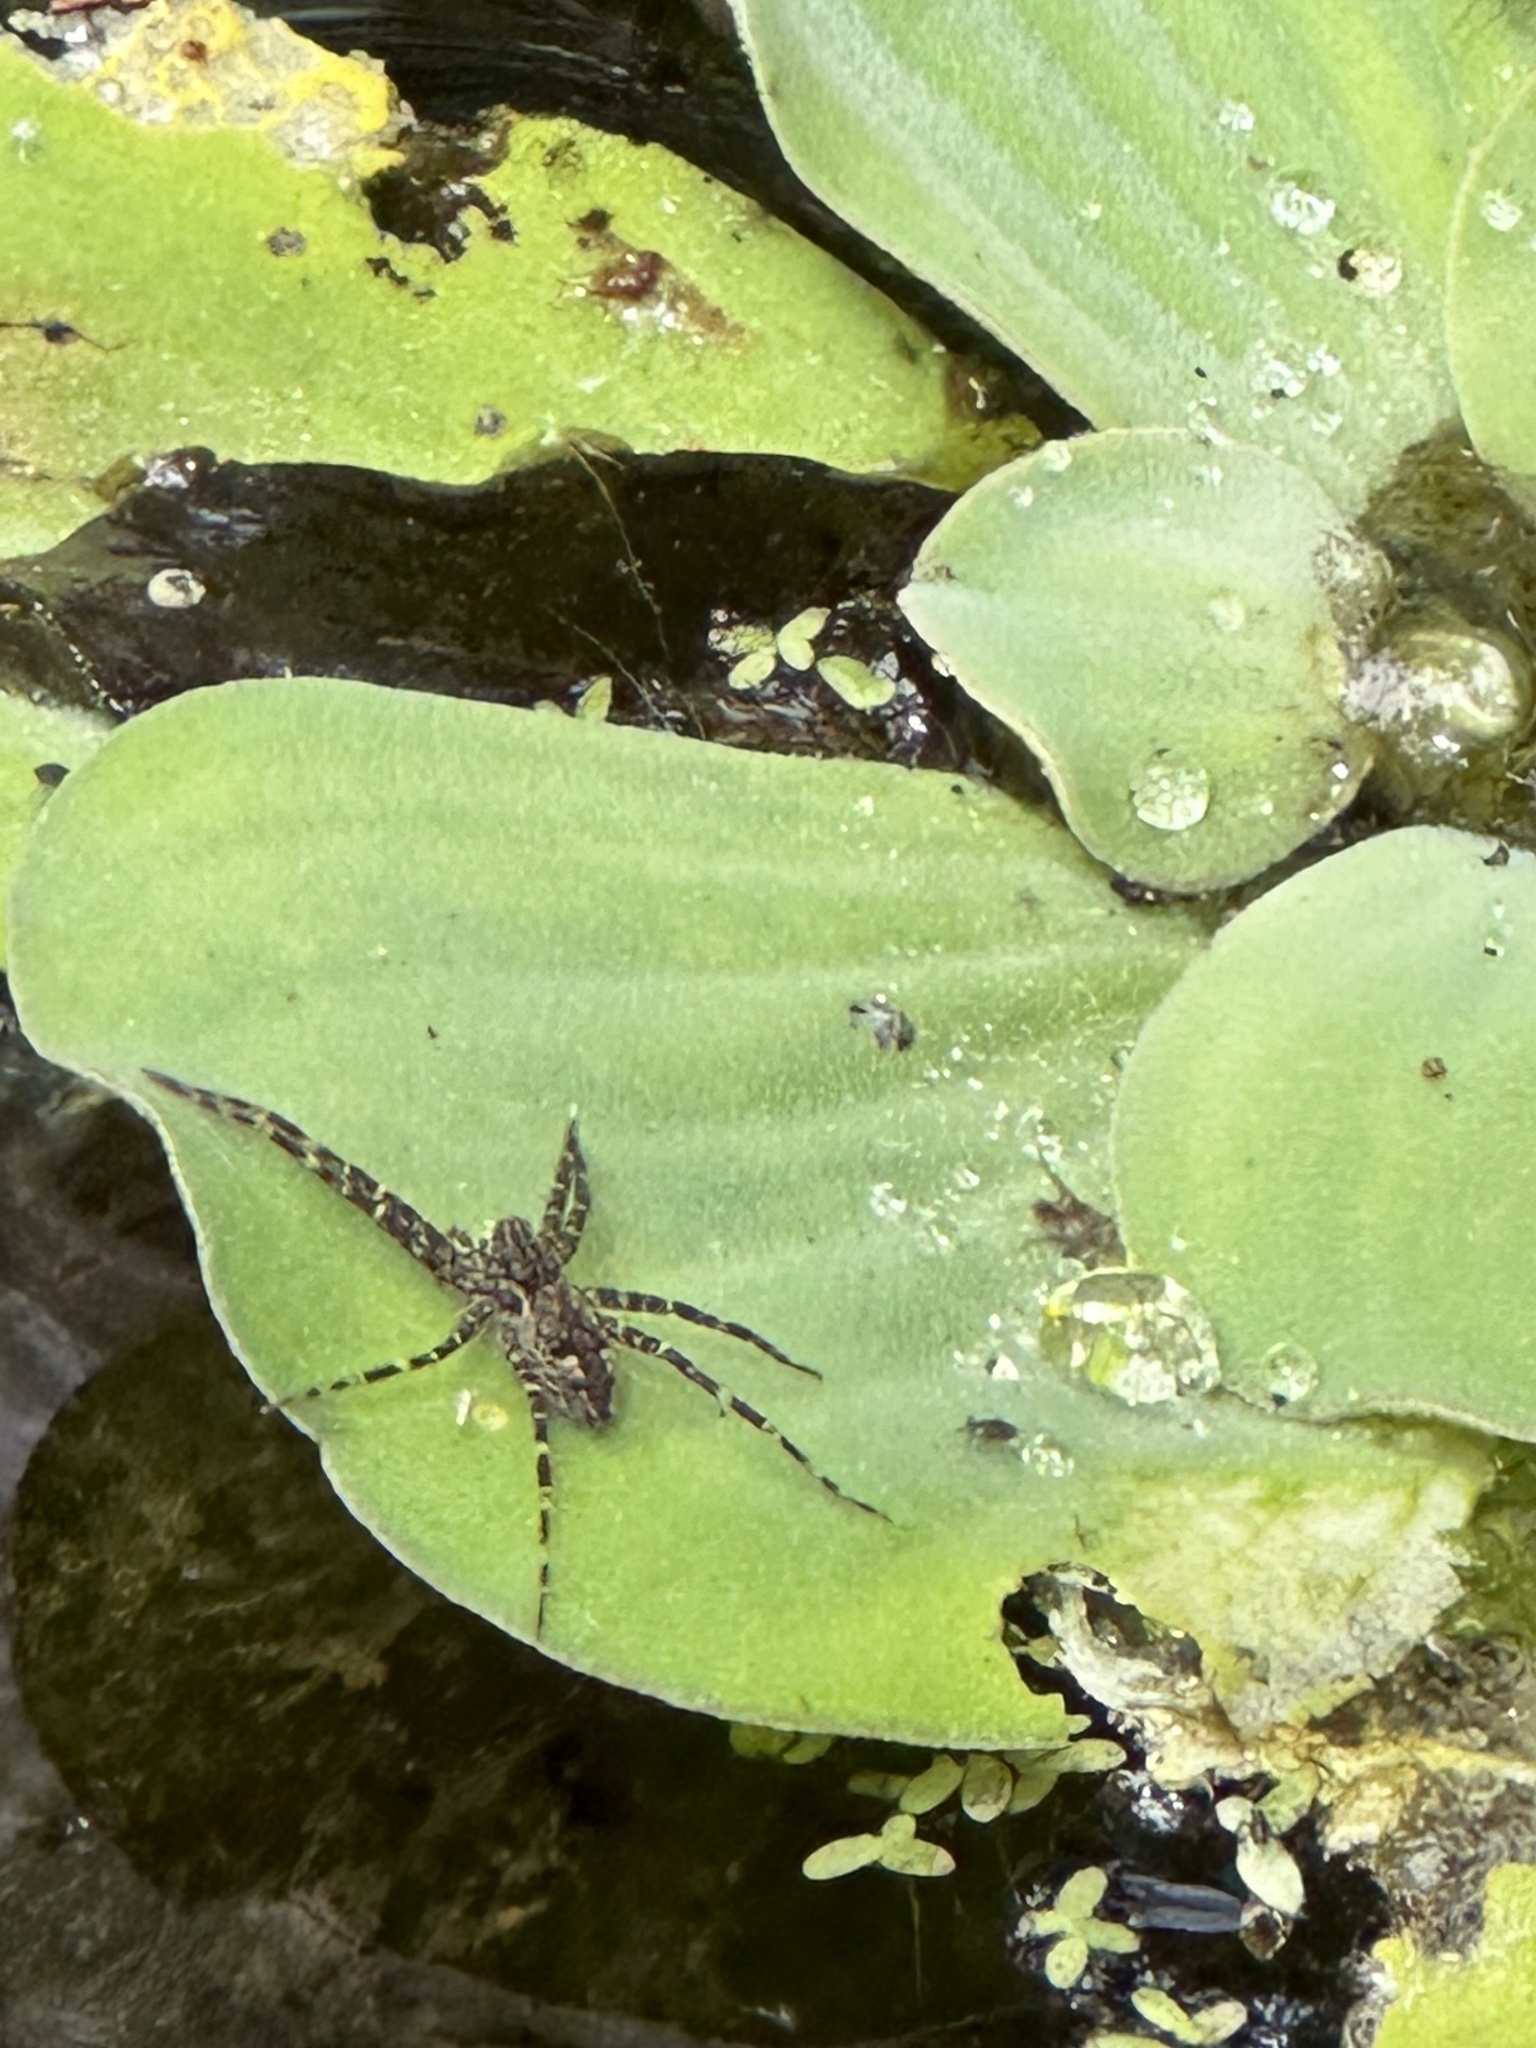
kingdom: Animalia
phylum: Arthropoda
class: Arachnida
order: Araneae
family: Pisauridae
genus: Dolomedes
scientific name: Dolomedes okefinokensis
